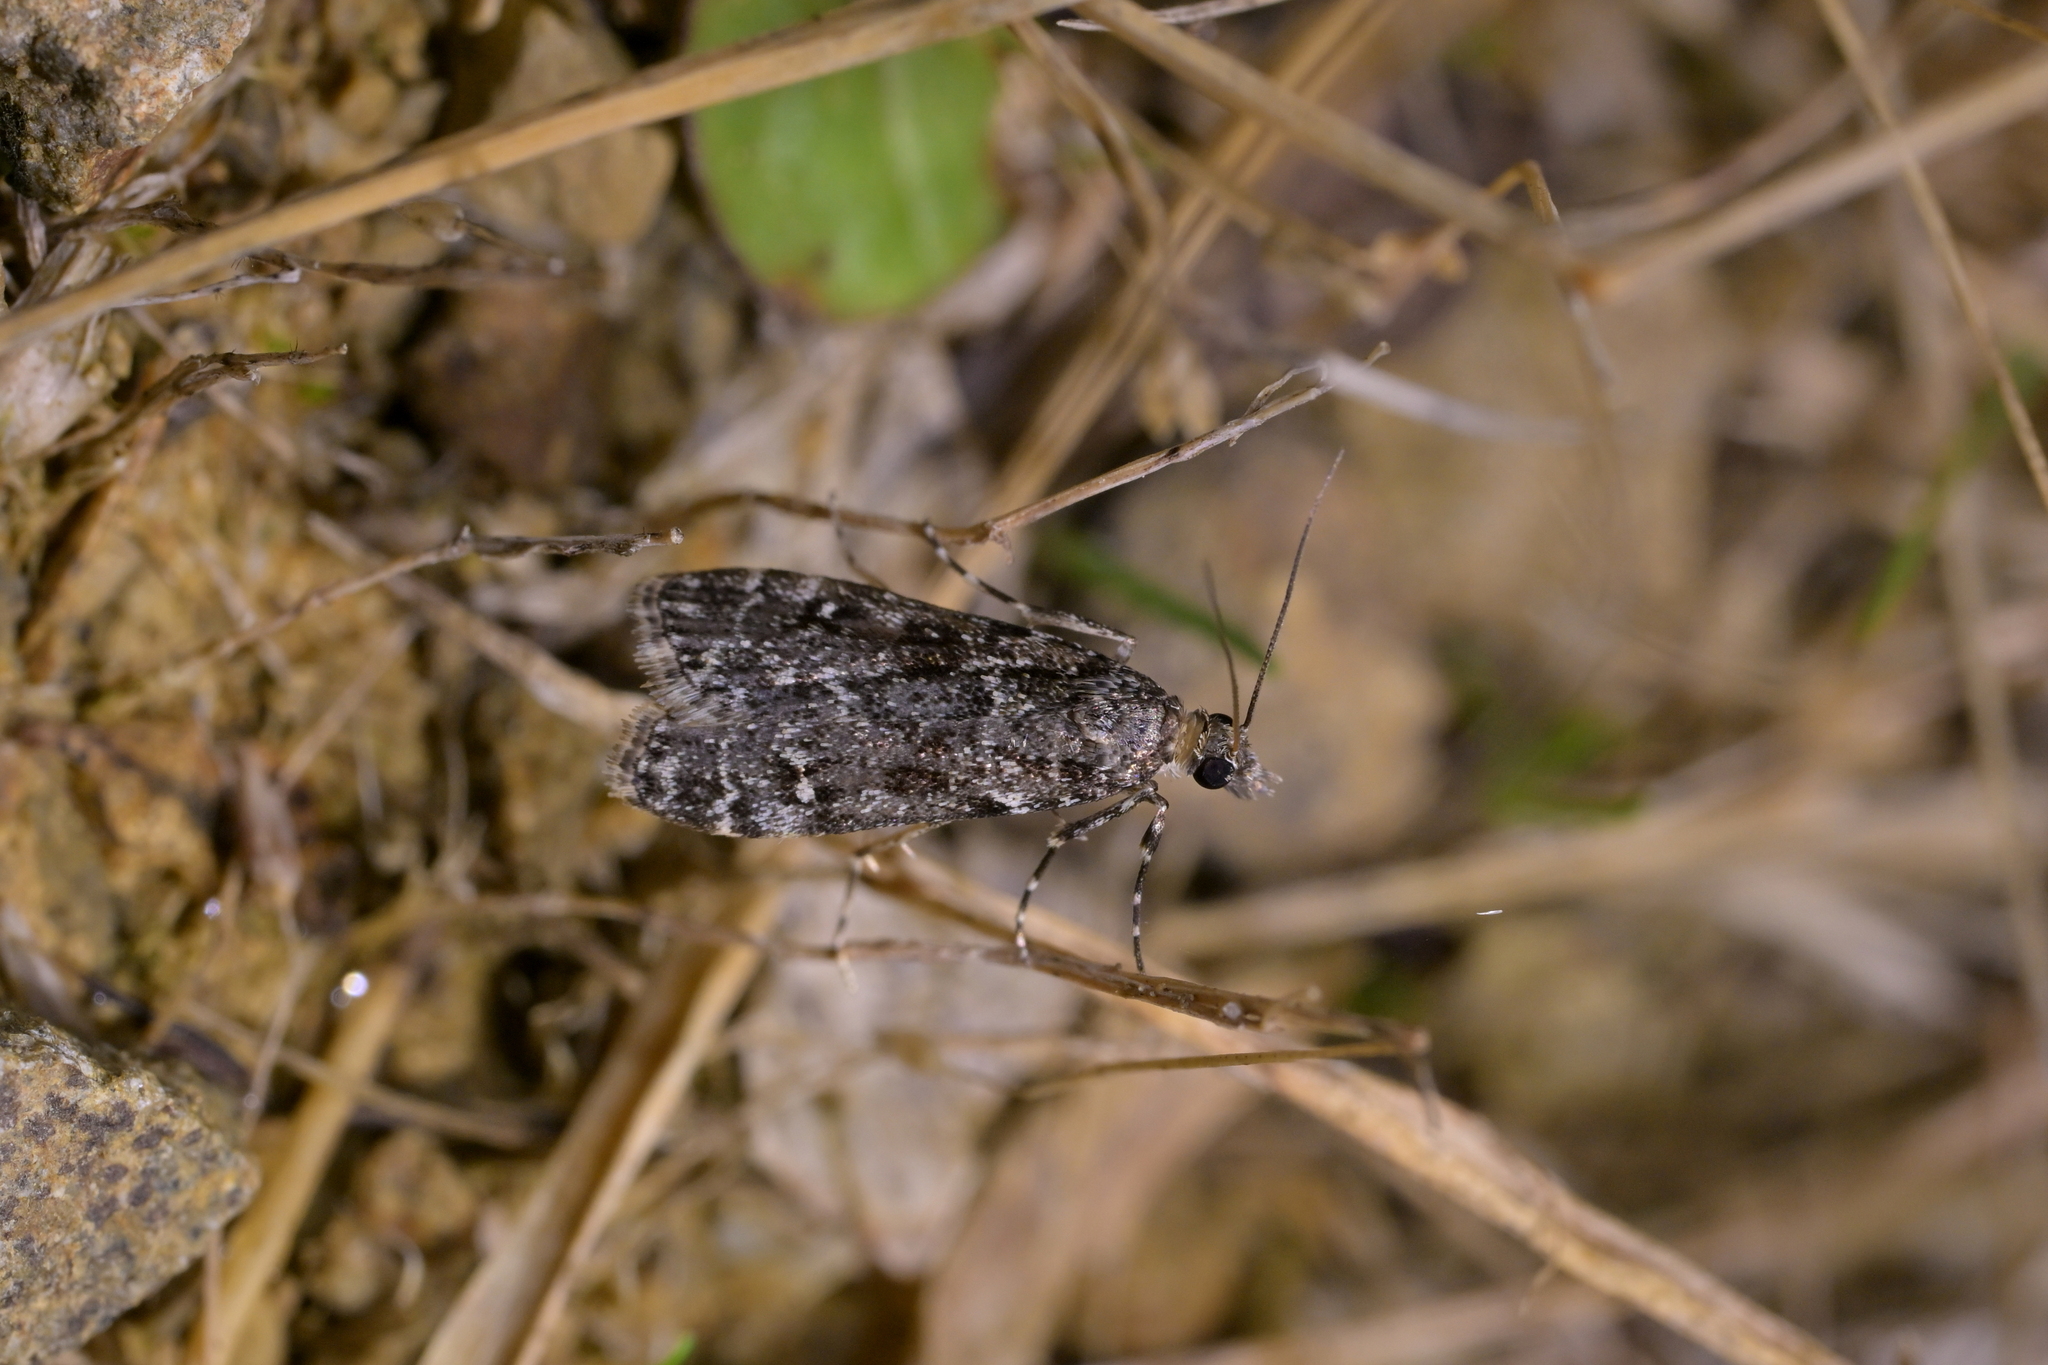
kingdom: Animalia
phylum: Arthropoda
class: Insecta
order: Lepidoptera
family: Crambidae
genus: Eudonia
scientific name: Eudonia philerga
